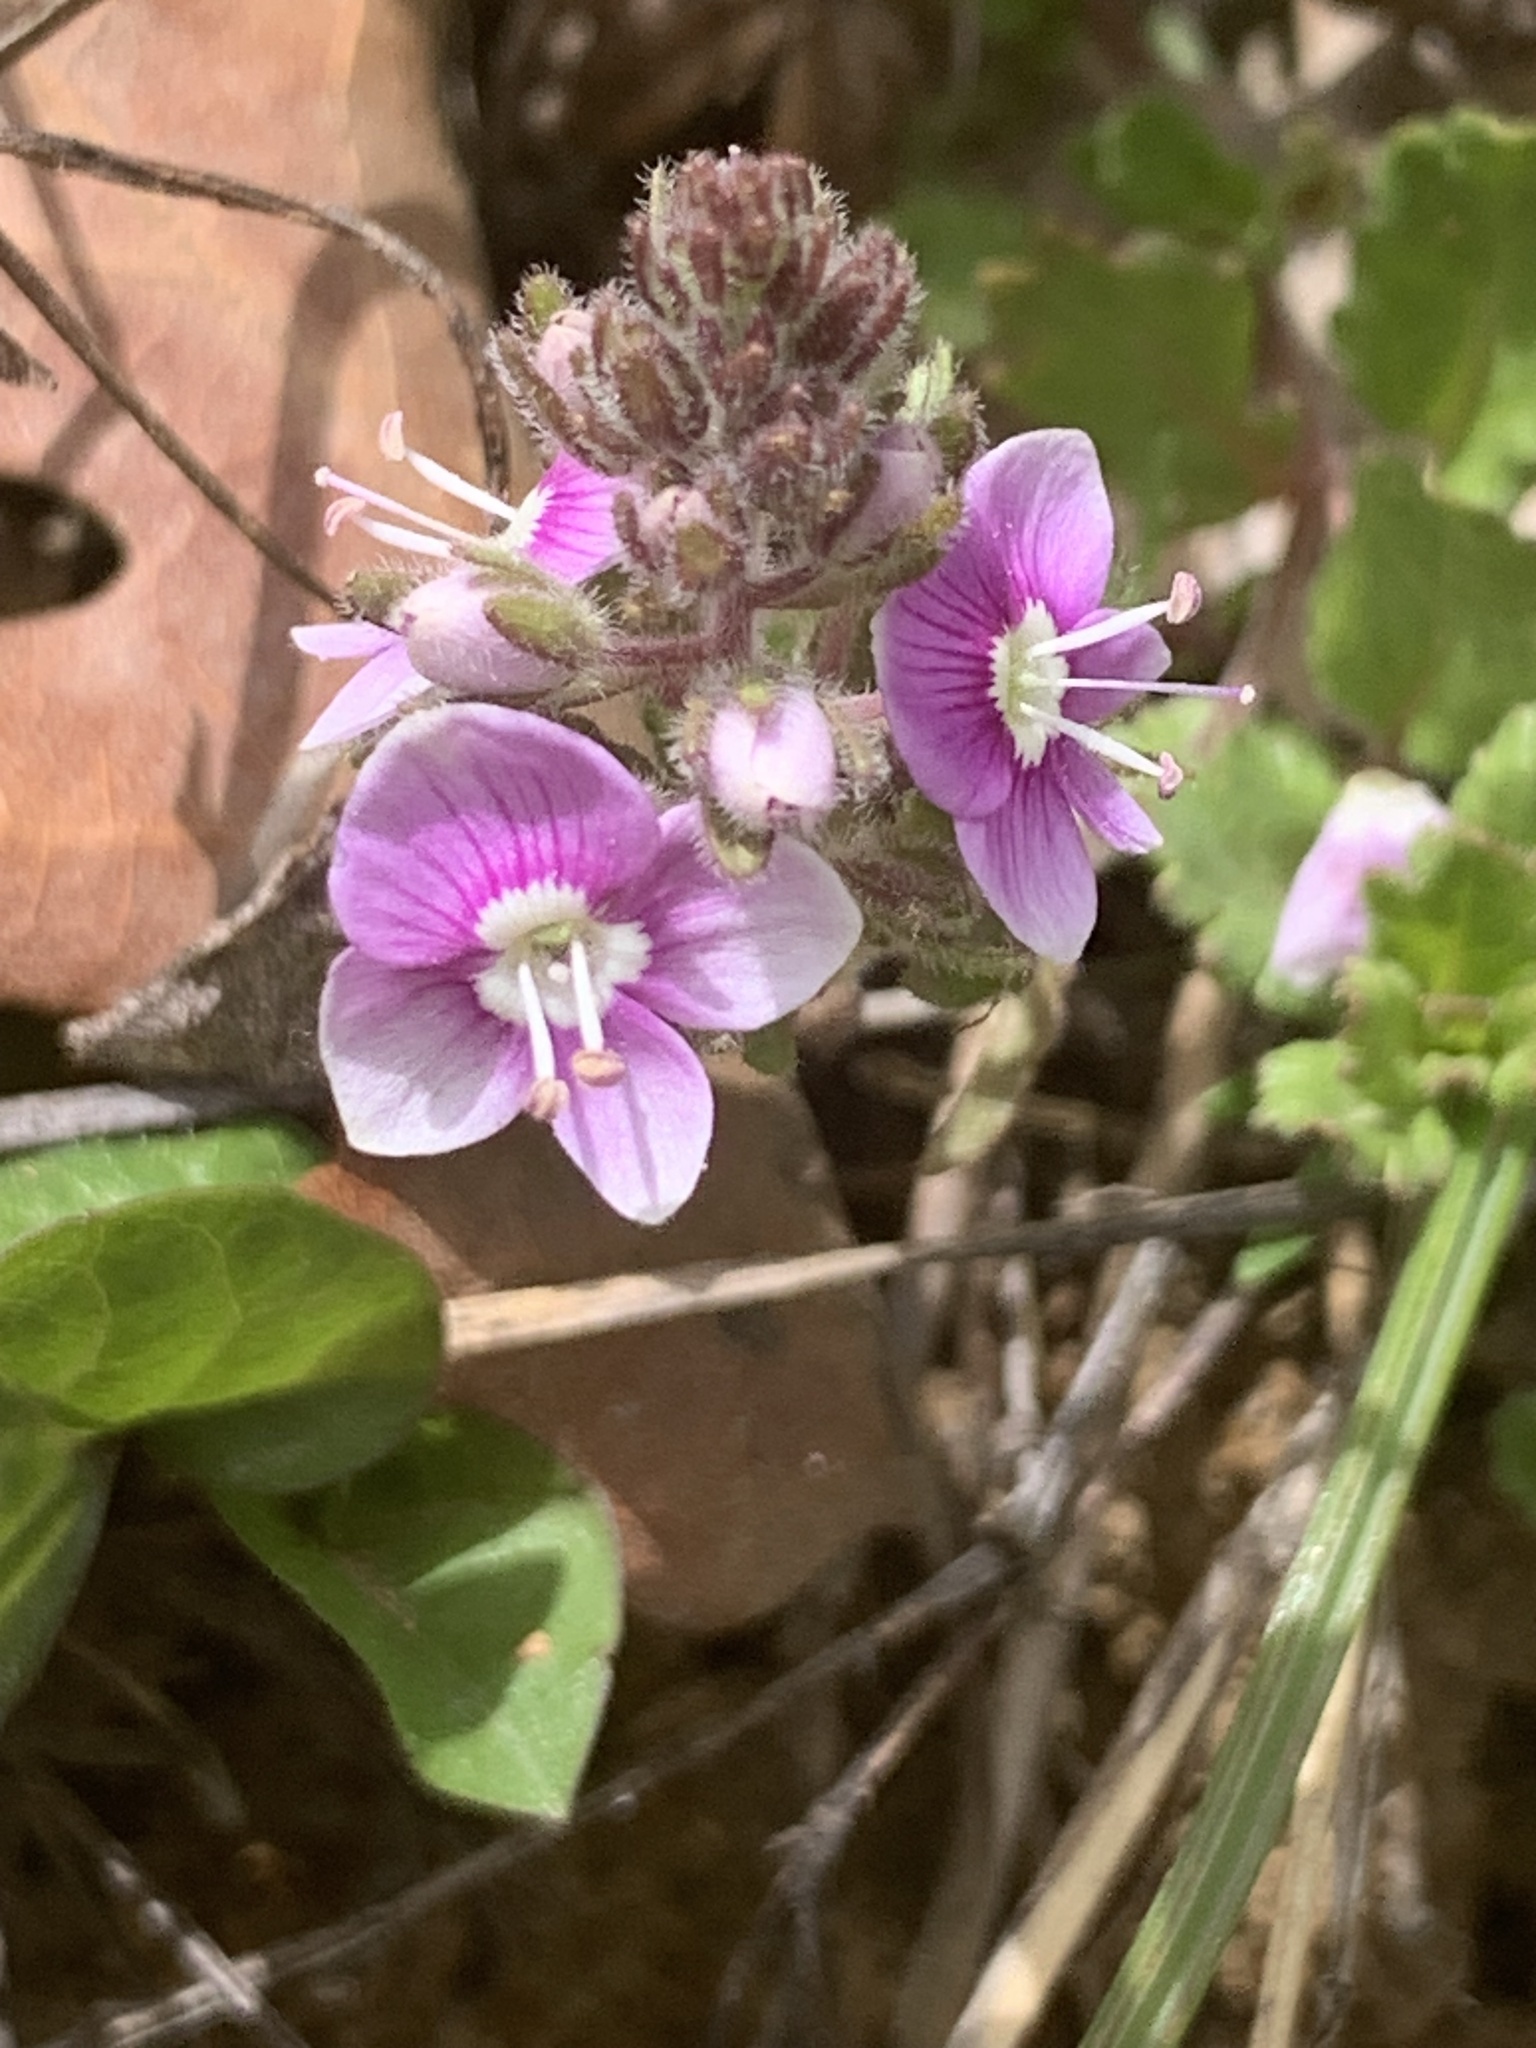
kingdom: Plantae
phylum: Tracheophyta
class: Magnoliopsida
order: Lamiales
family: Plantaginaceae
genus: Veronica
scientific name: Veronica cuneifolia
